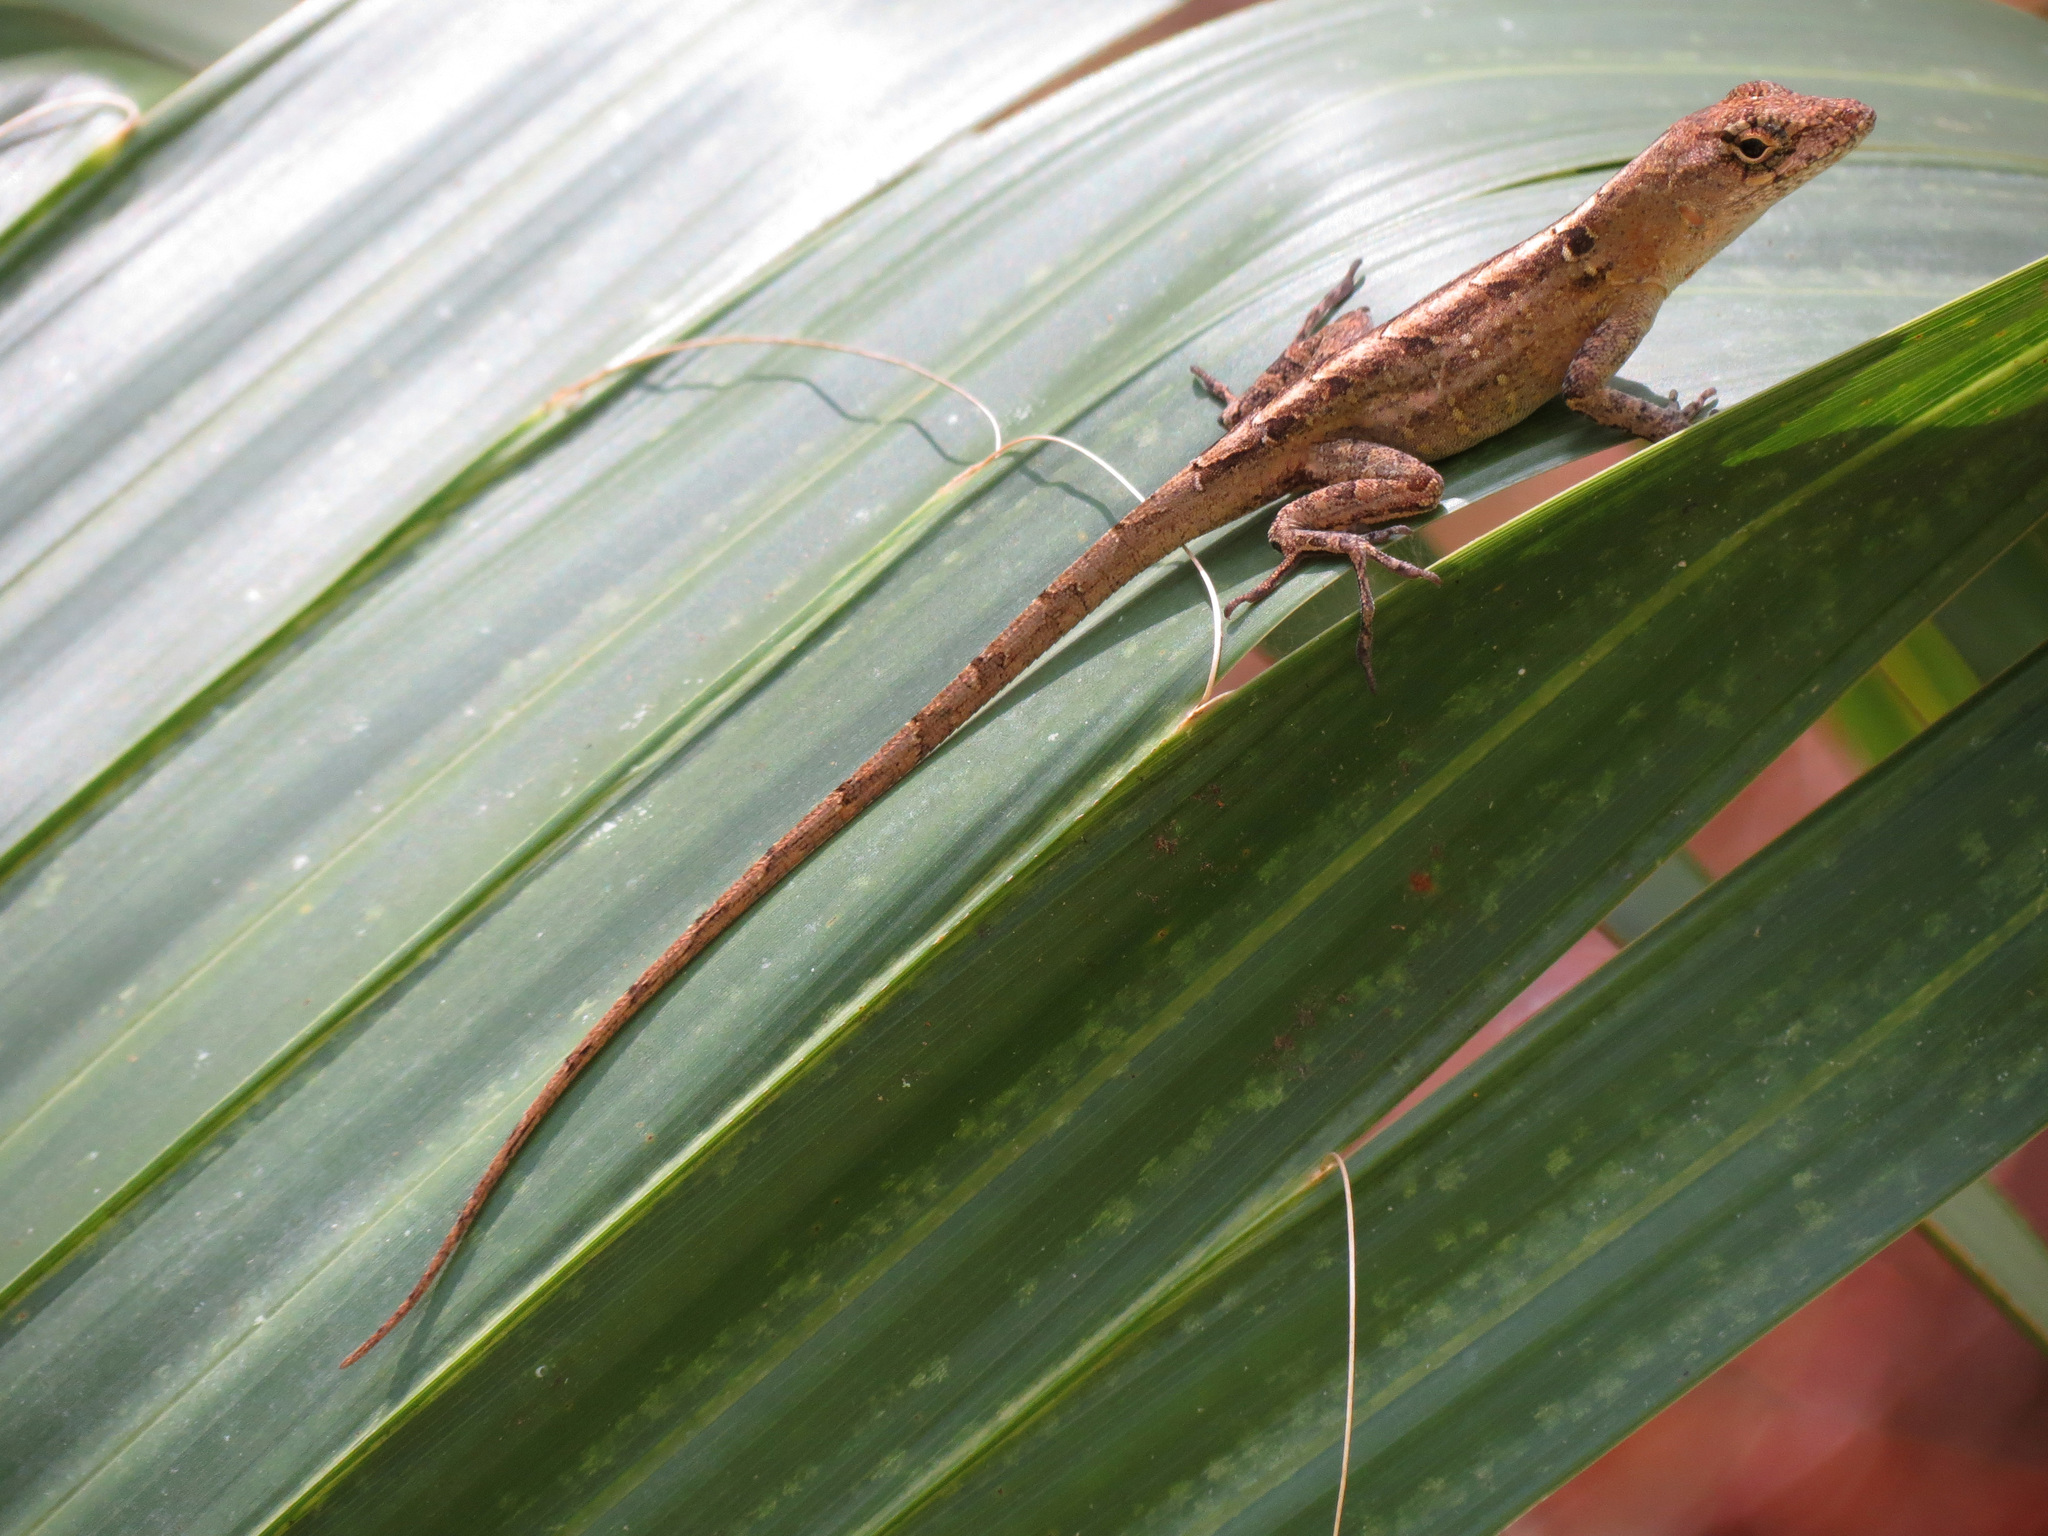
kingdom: Animalia
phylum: Chordata
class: Squamata
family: Dactyloidae
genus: Anolis
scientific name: Anolis sagrei
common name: Brown anole
